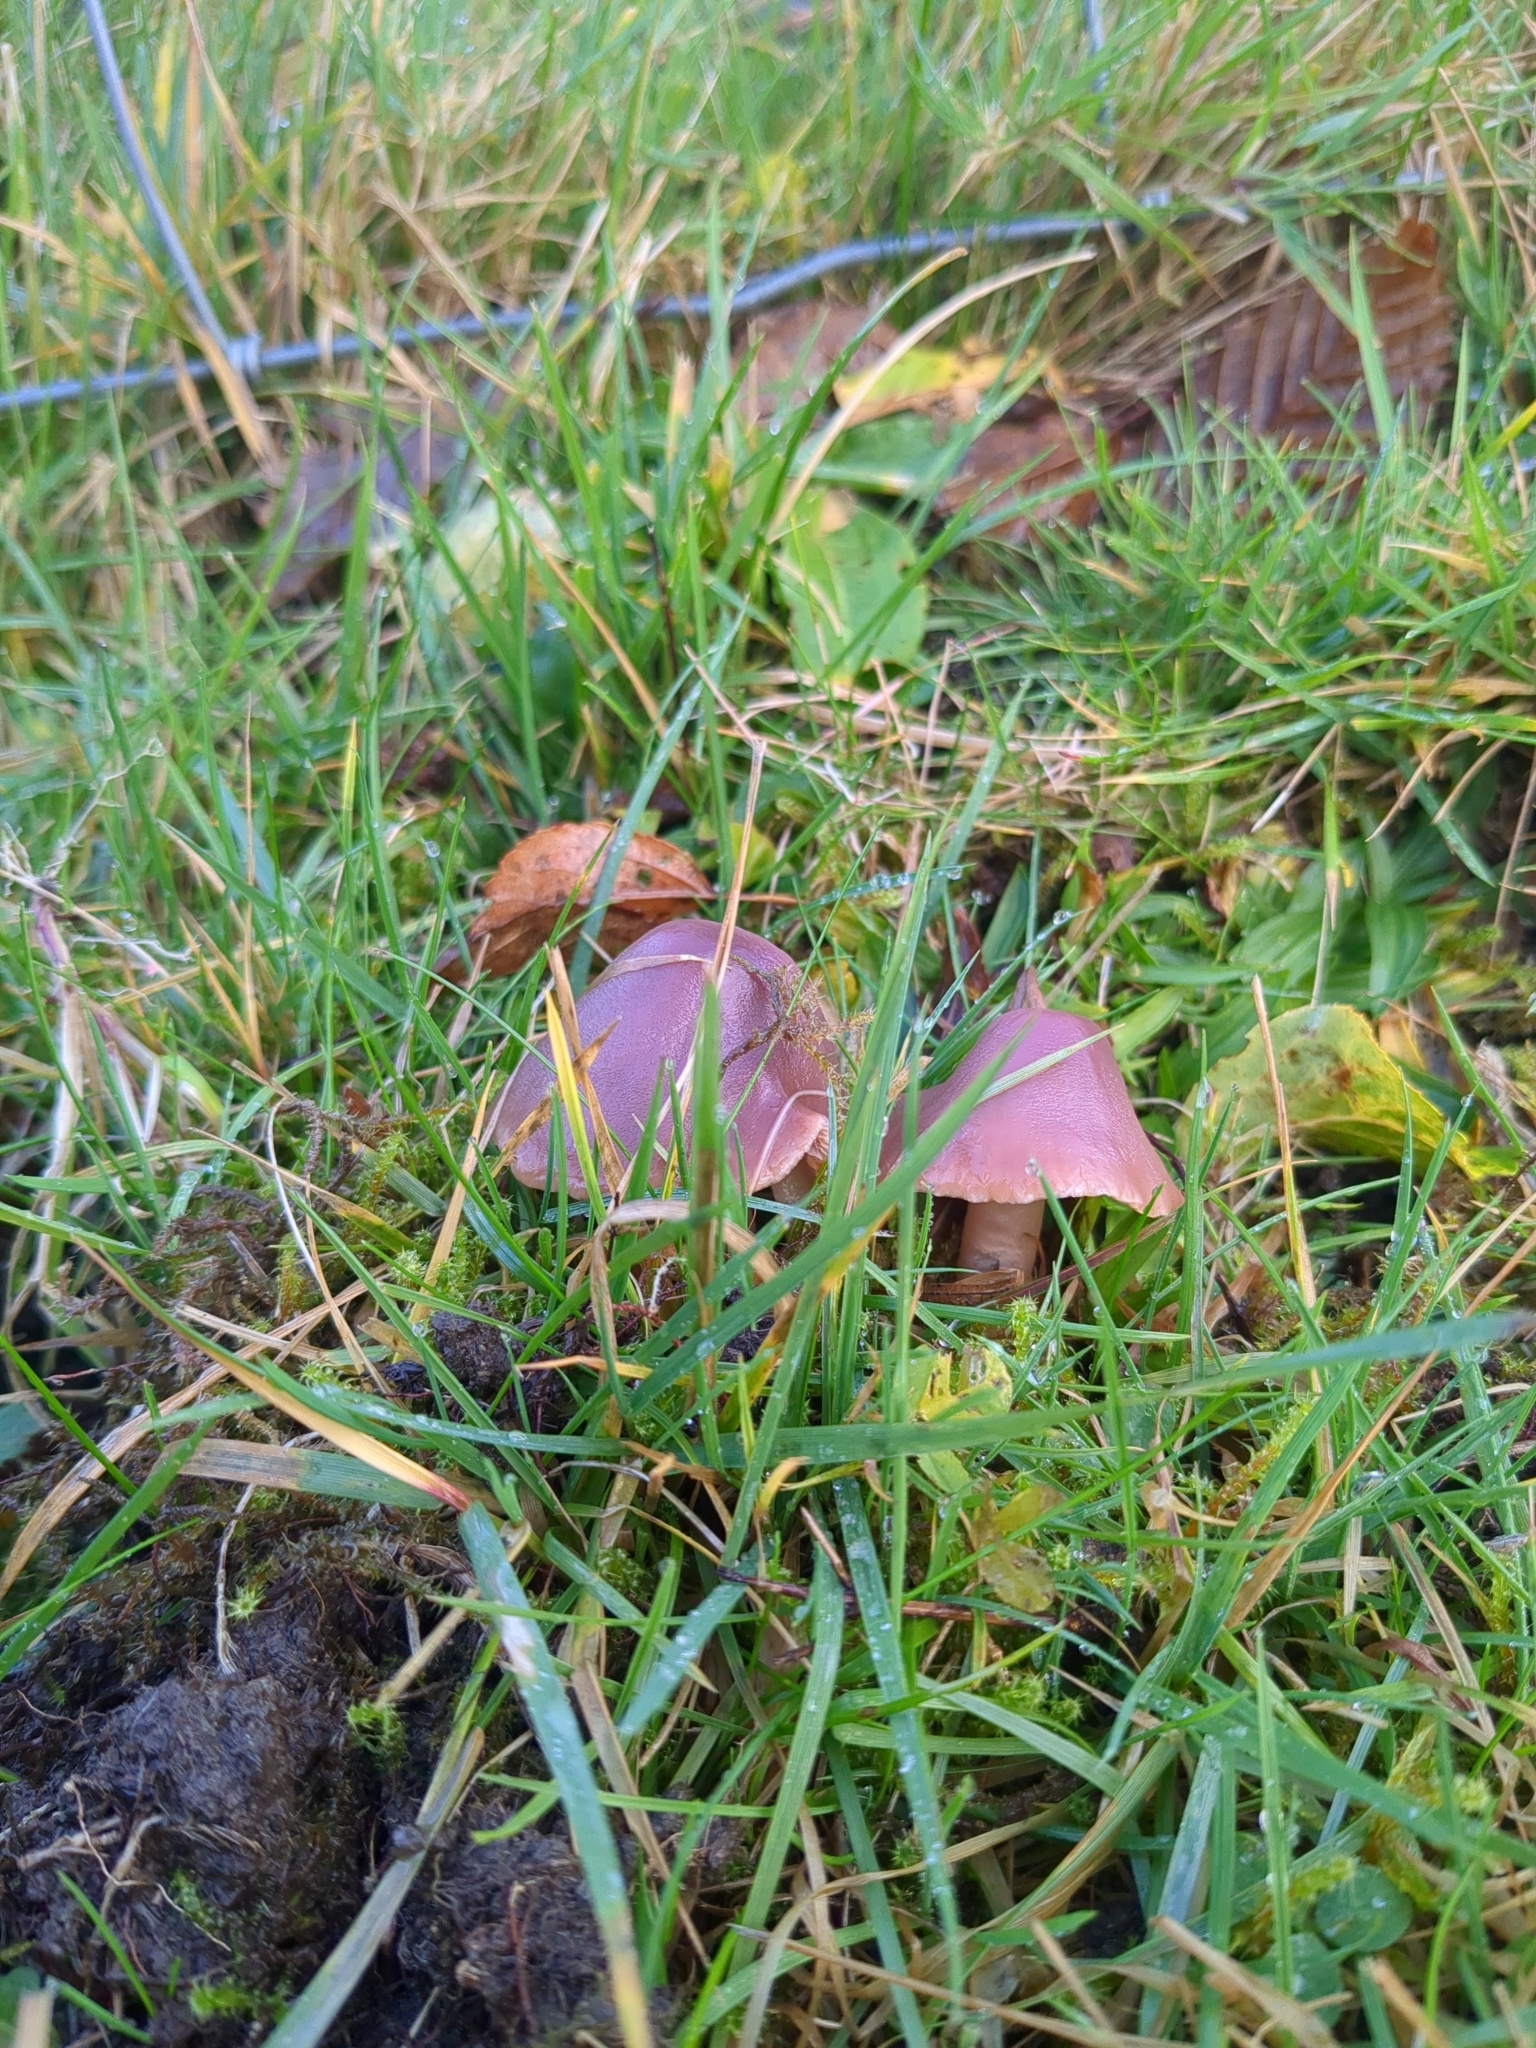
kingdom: Fungi
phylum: Basidiomycota
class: Agaricomycetes
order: Agaricales
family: Hygrophoraceae
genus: Gliophorus
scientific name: Gliophorus reginae
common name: Jubilee waxcap
